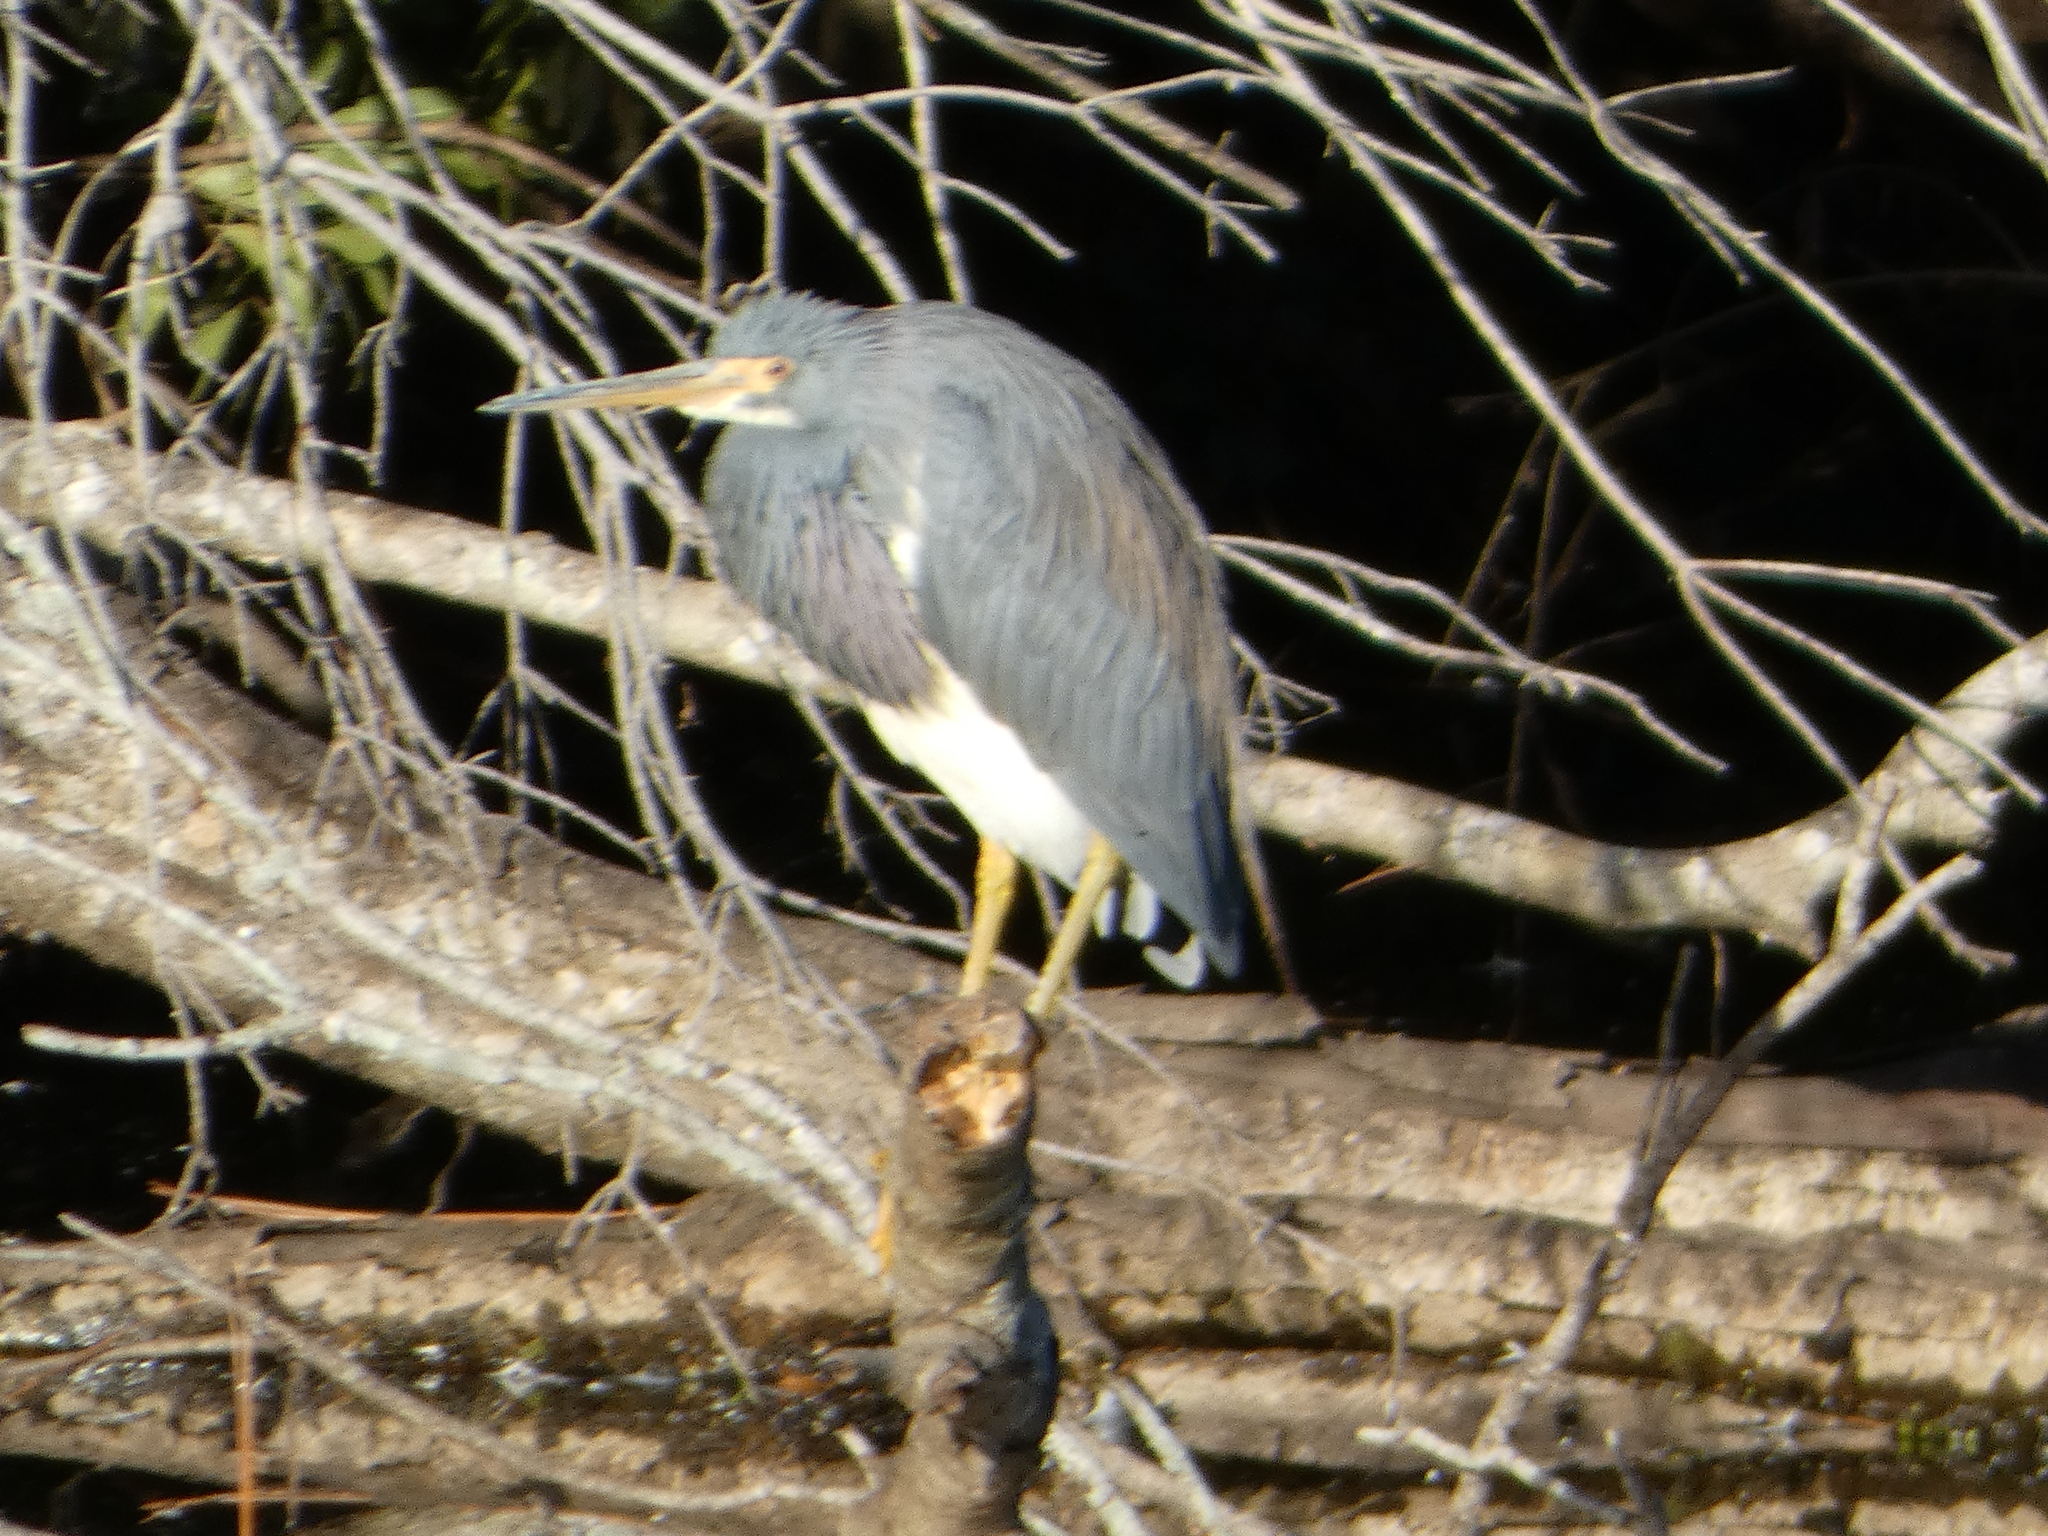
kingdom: Animalia
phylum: Chordata
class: Aves
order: Pelecaniformes
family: Ardeidae
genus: Egretta
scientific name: Egretta tricolor
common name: Tricolored heron
